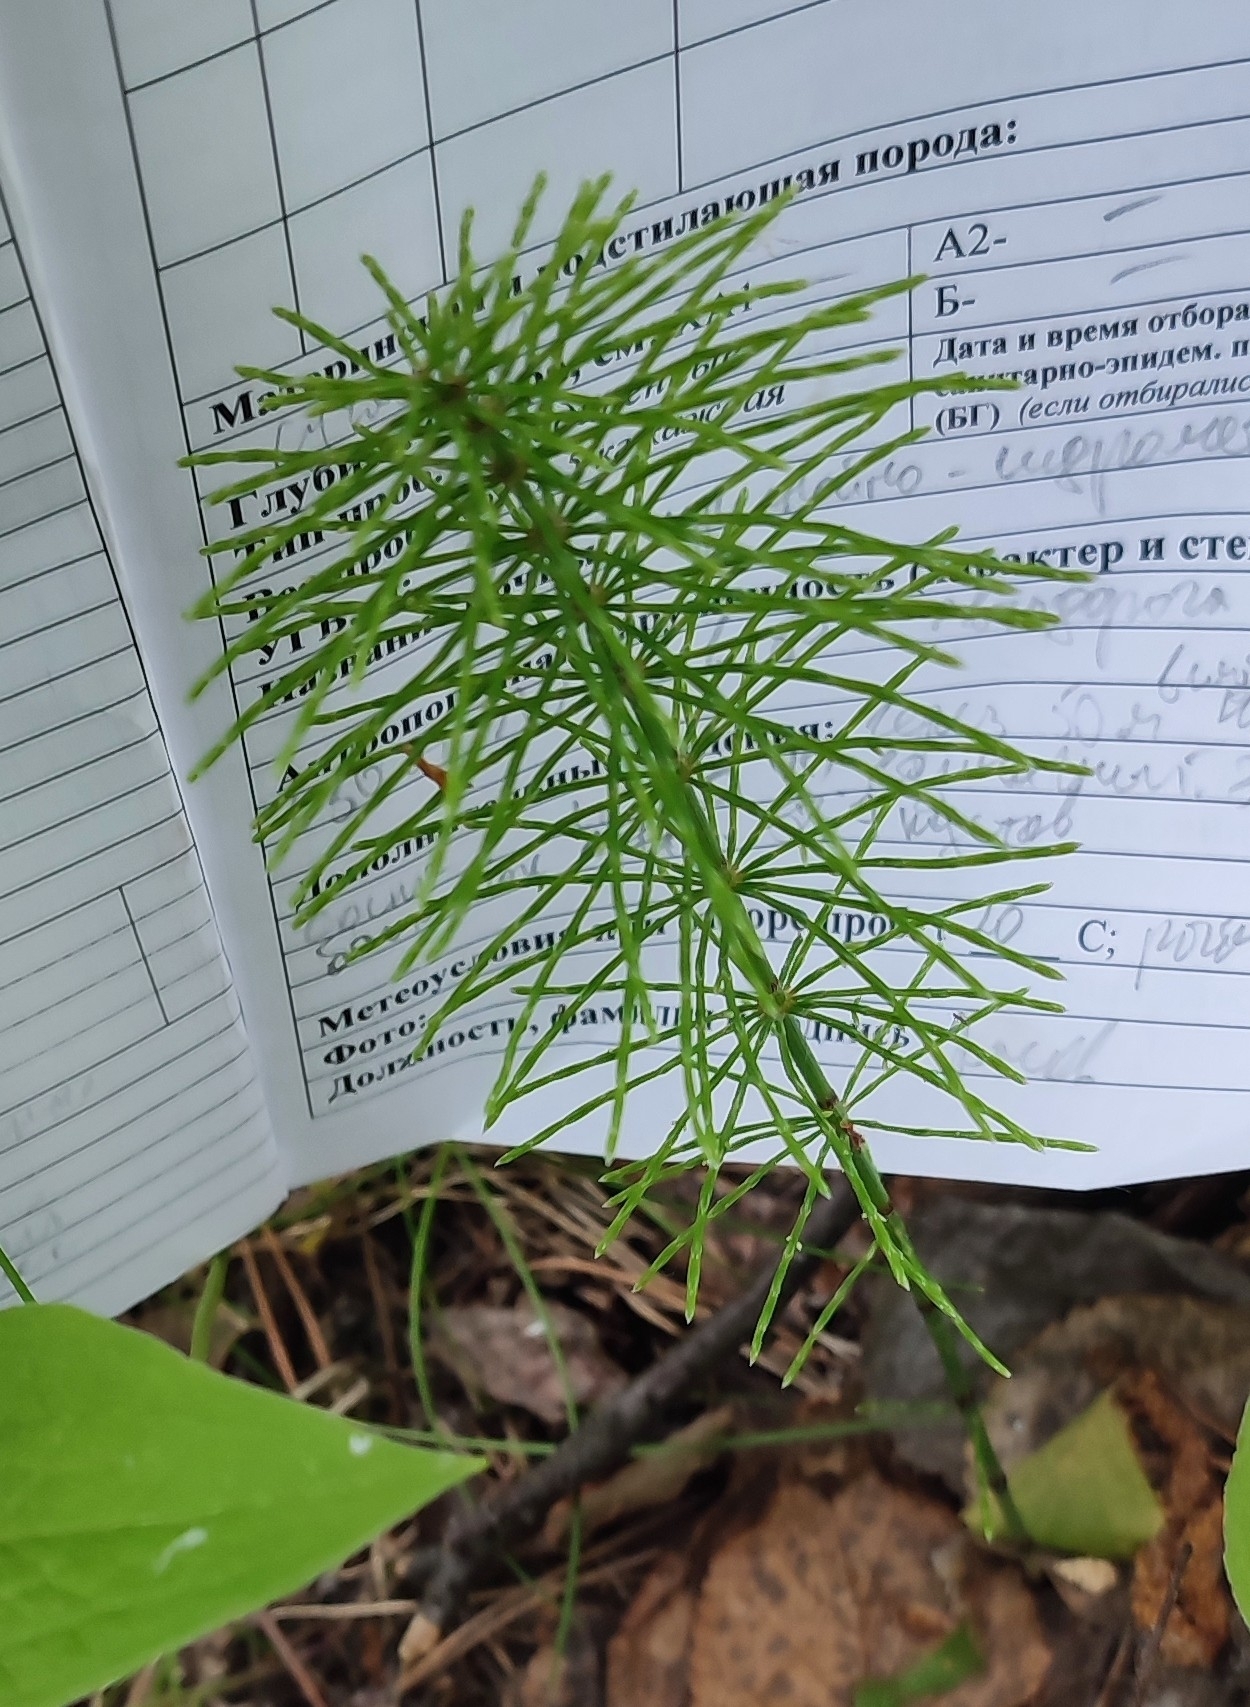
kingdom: Plantae
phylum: Tracheophyta
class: Polypodiopsida
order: Equisetales
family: Equisetaceae
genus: Equisetum
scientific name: Equisetum pratense
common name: Meadow horsetail
